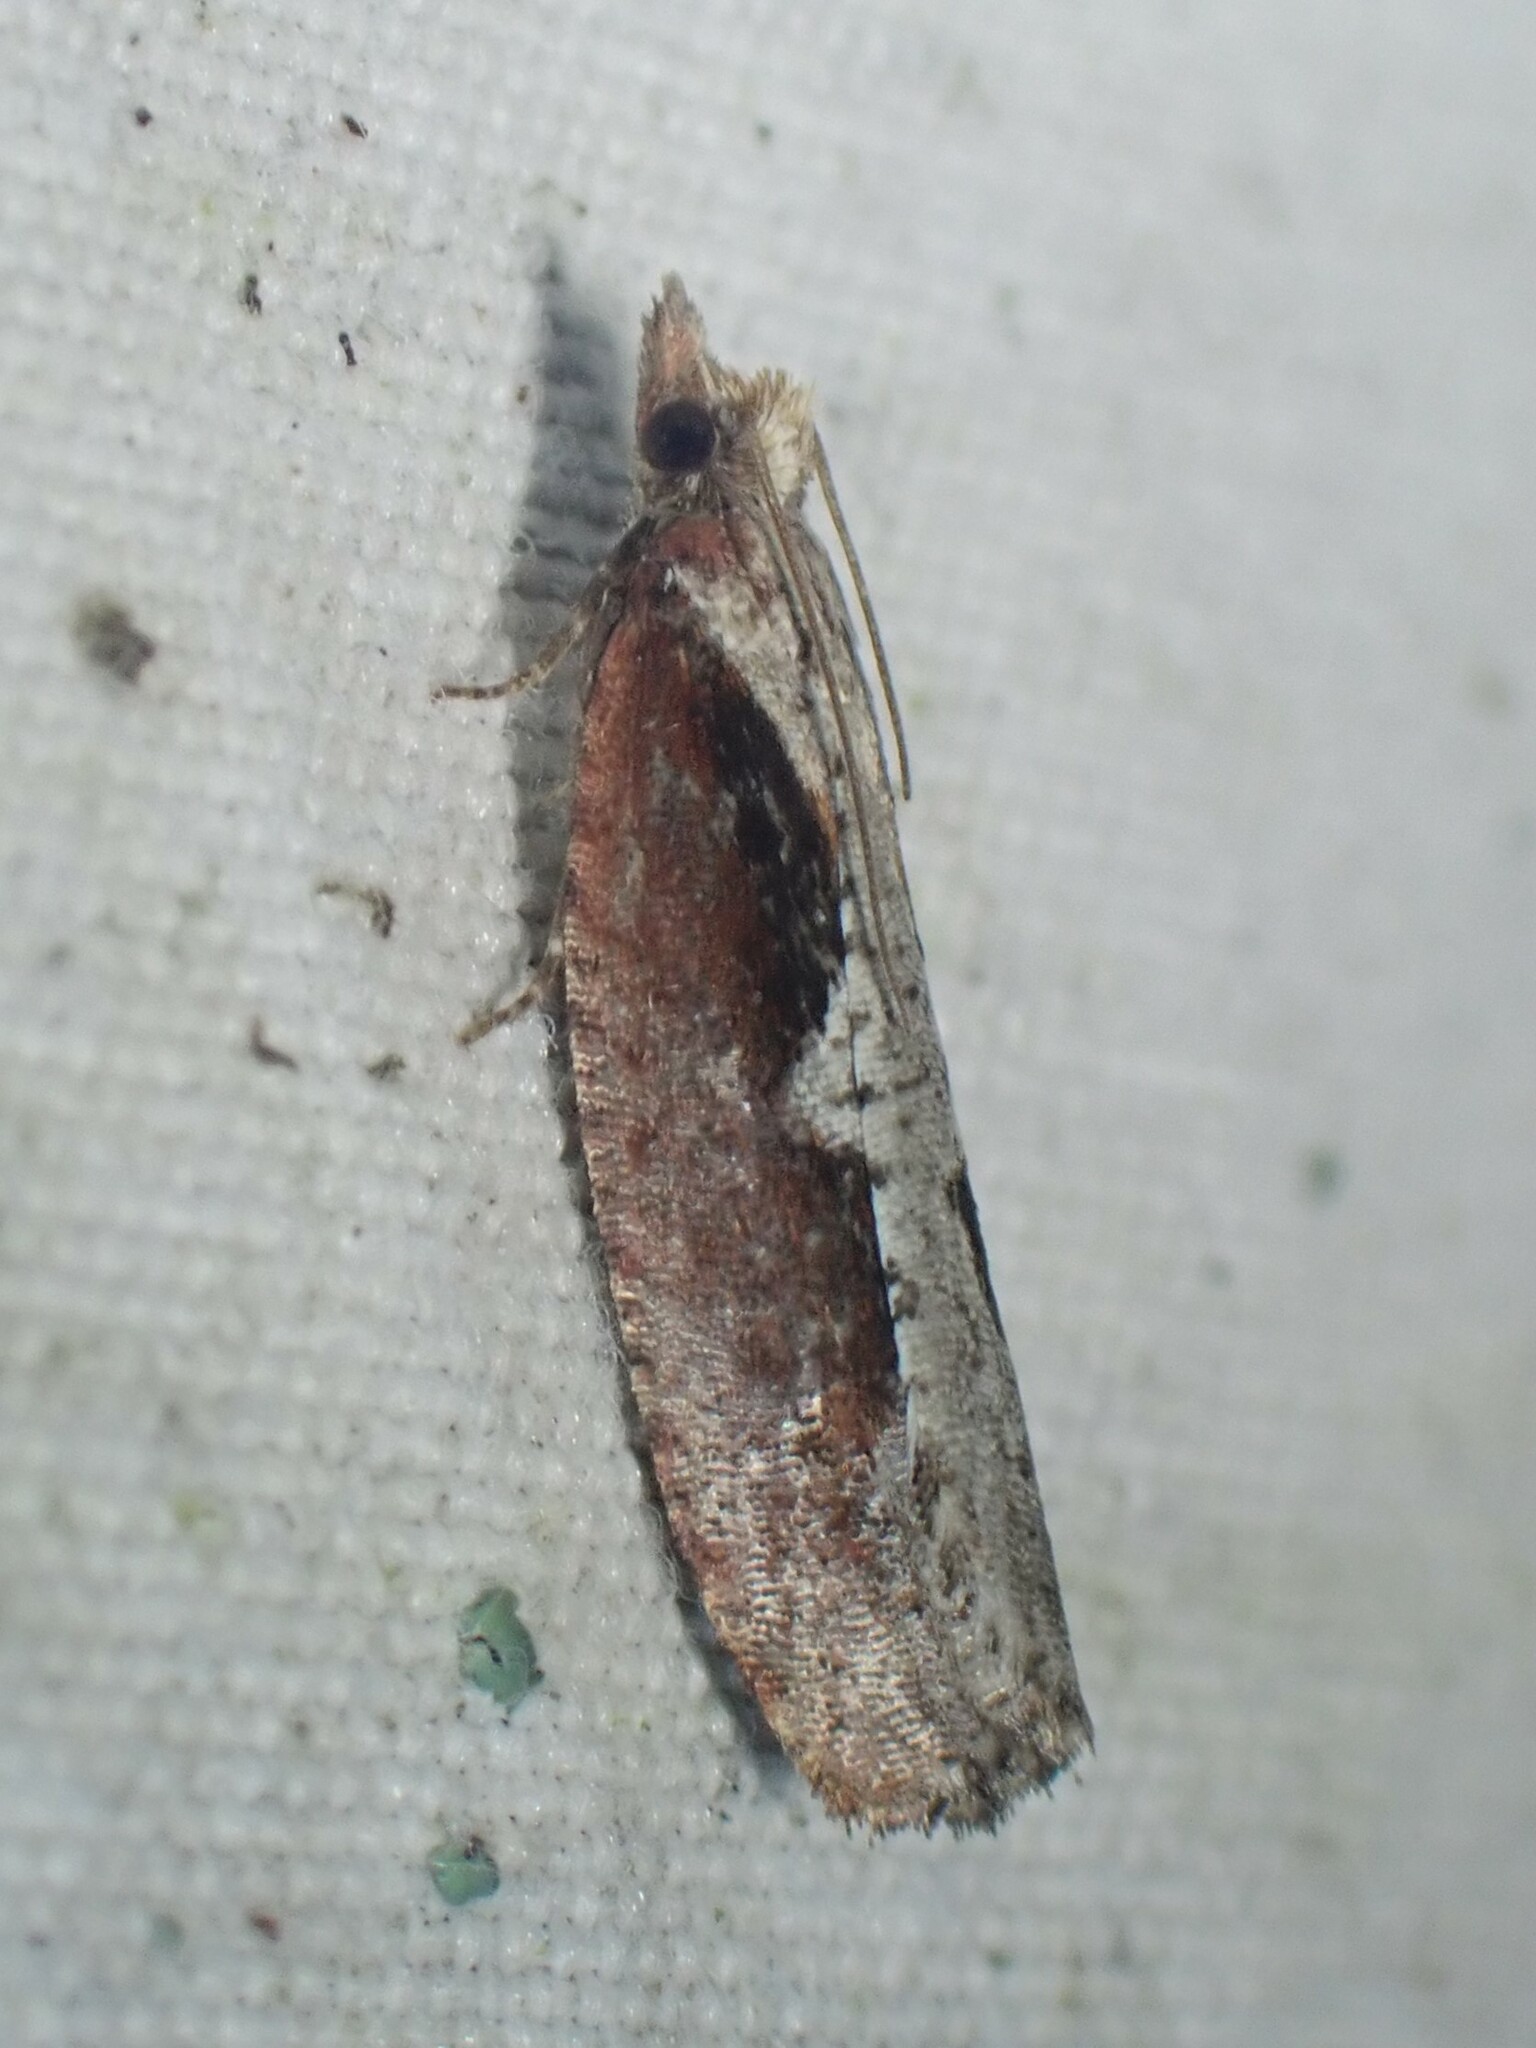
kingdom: Animalia
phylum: Arthropoda
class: Insecta
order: Lepidoptera
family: Tortricidae
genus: Epinotia
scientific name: Epinotia lindana
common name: Diamondback epinotia moth
